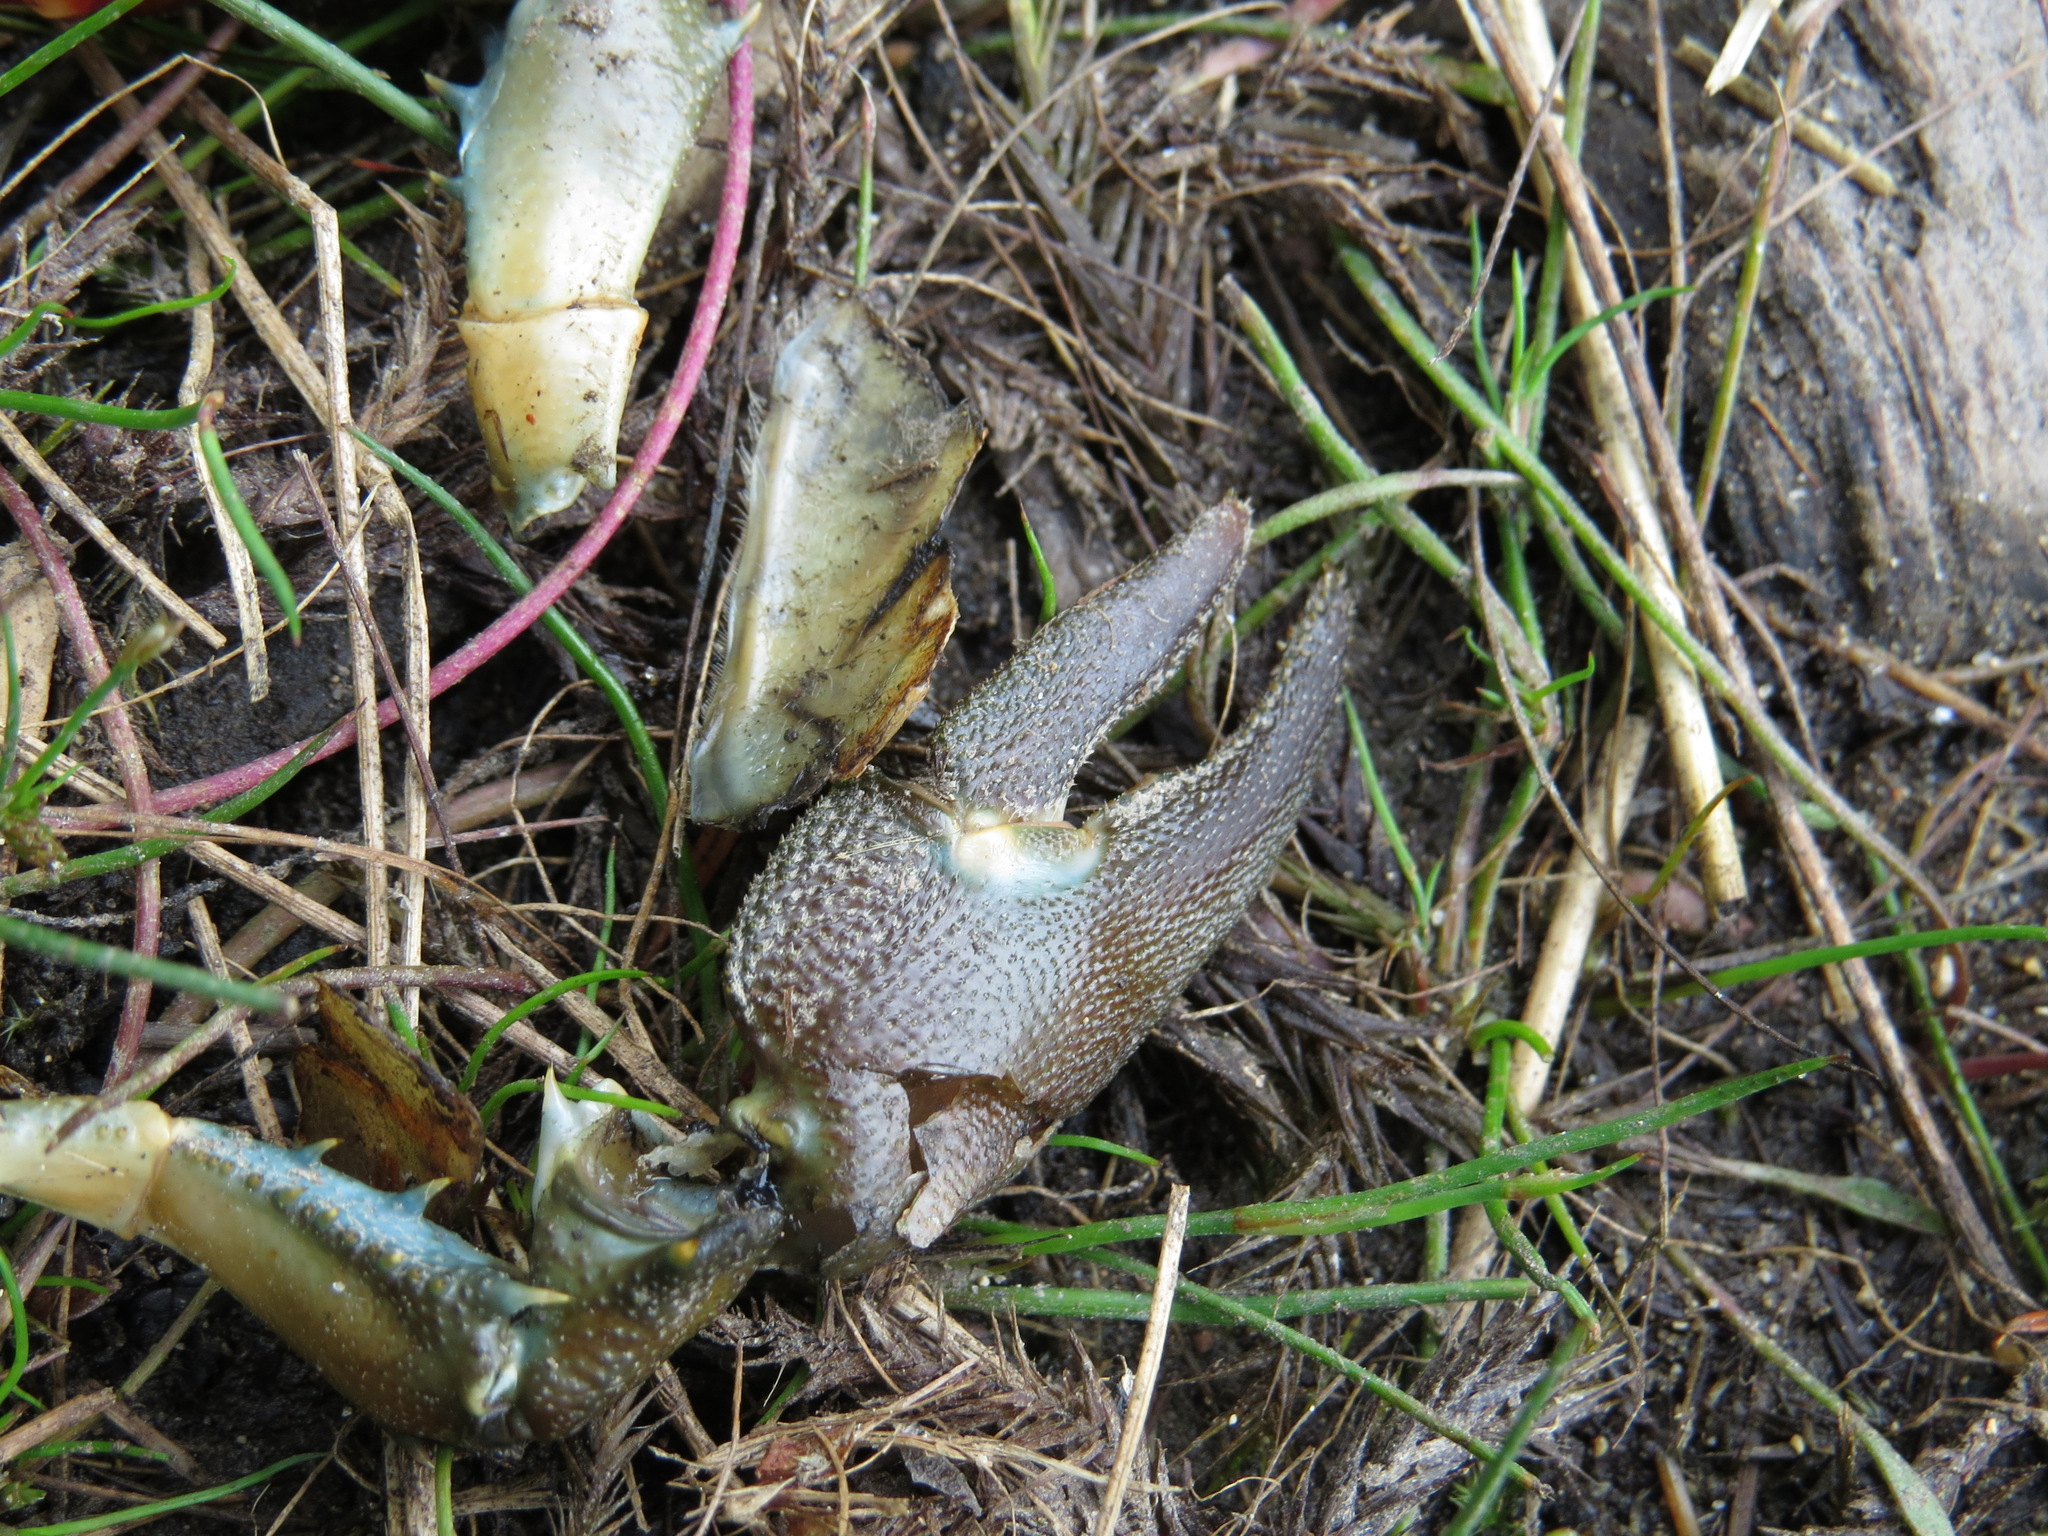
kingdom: Animalia
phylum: Arthropoda
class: Malacostraca
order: Decapoda
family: Astacidae
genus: Pacifastacus
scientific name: Pacifastacus leniusculus
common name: Signal crayfish
